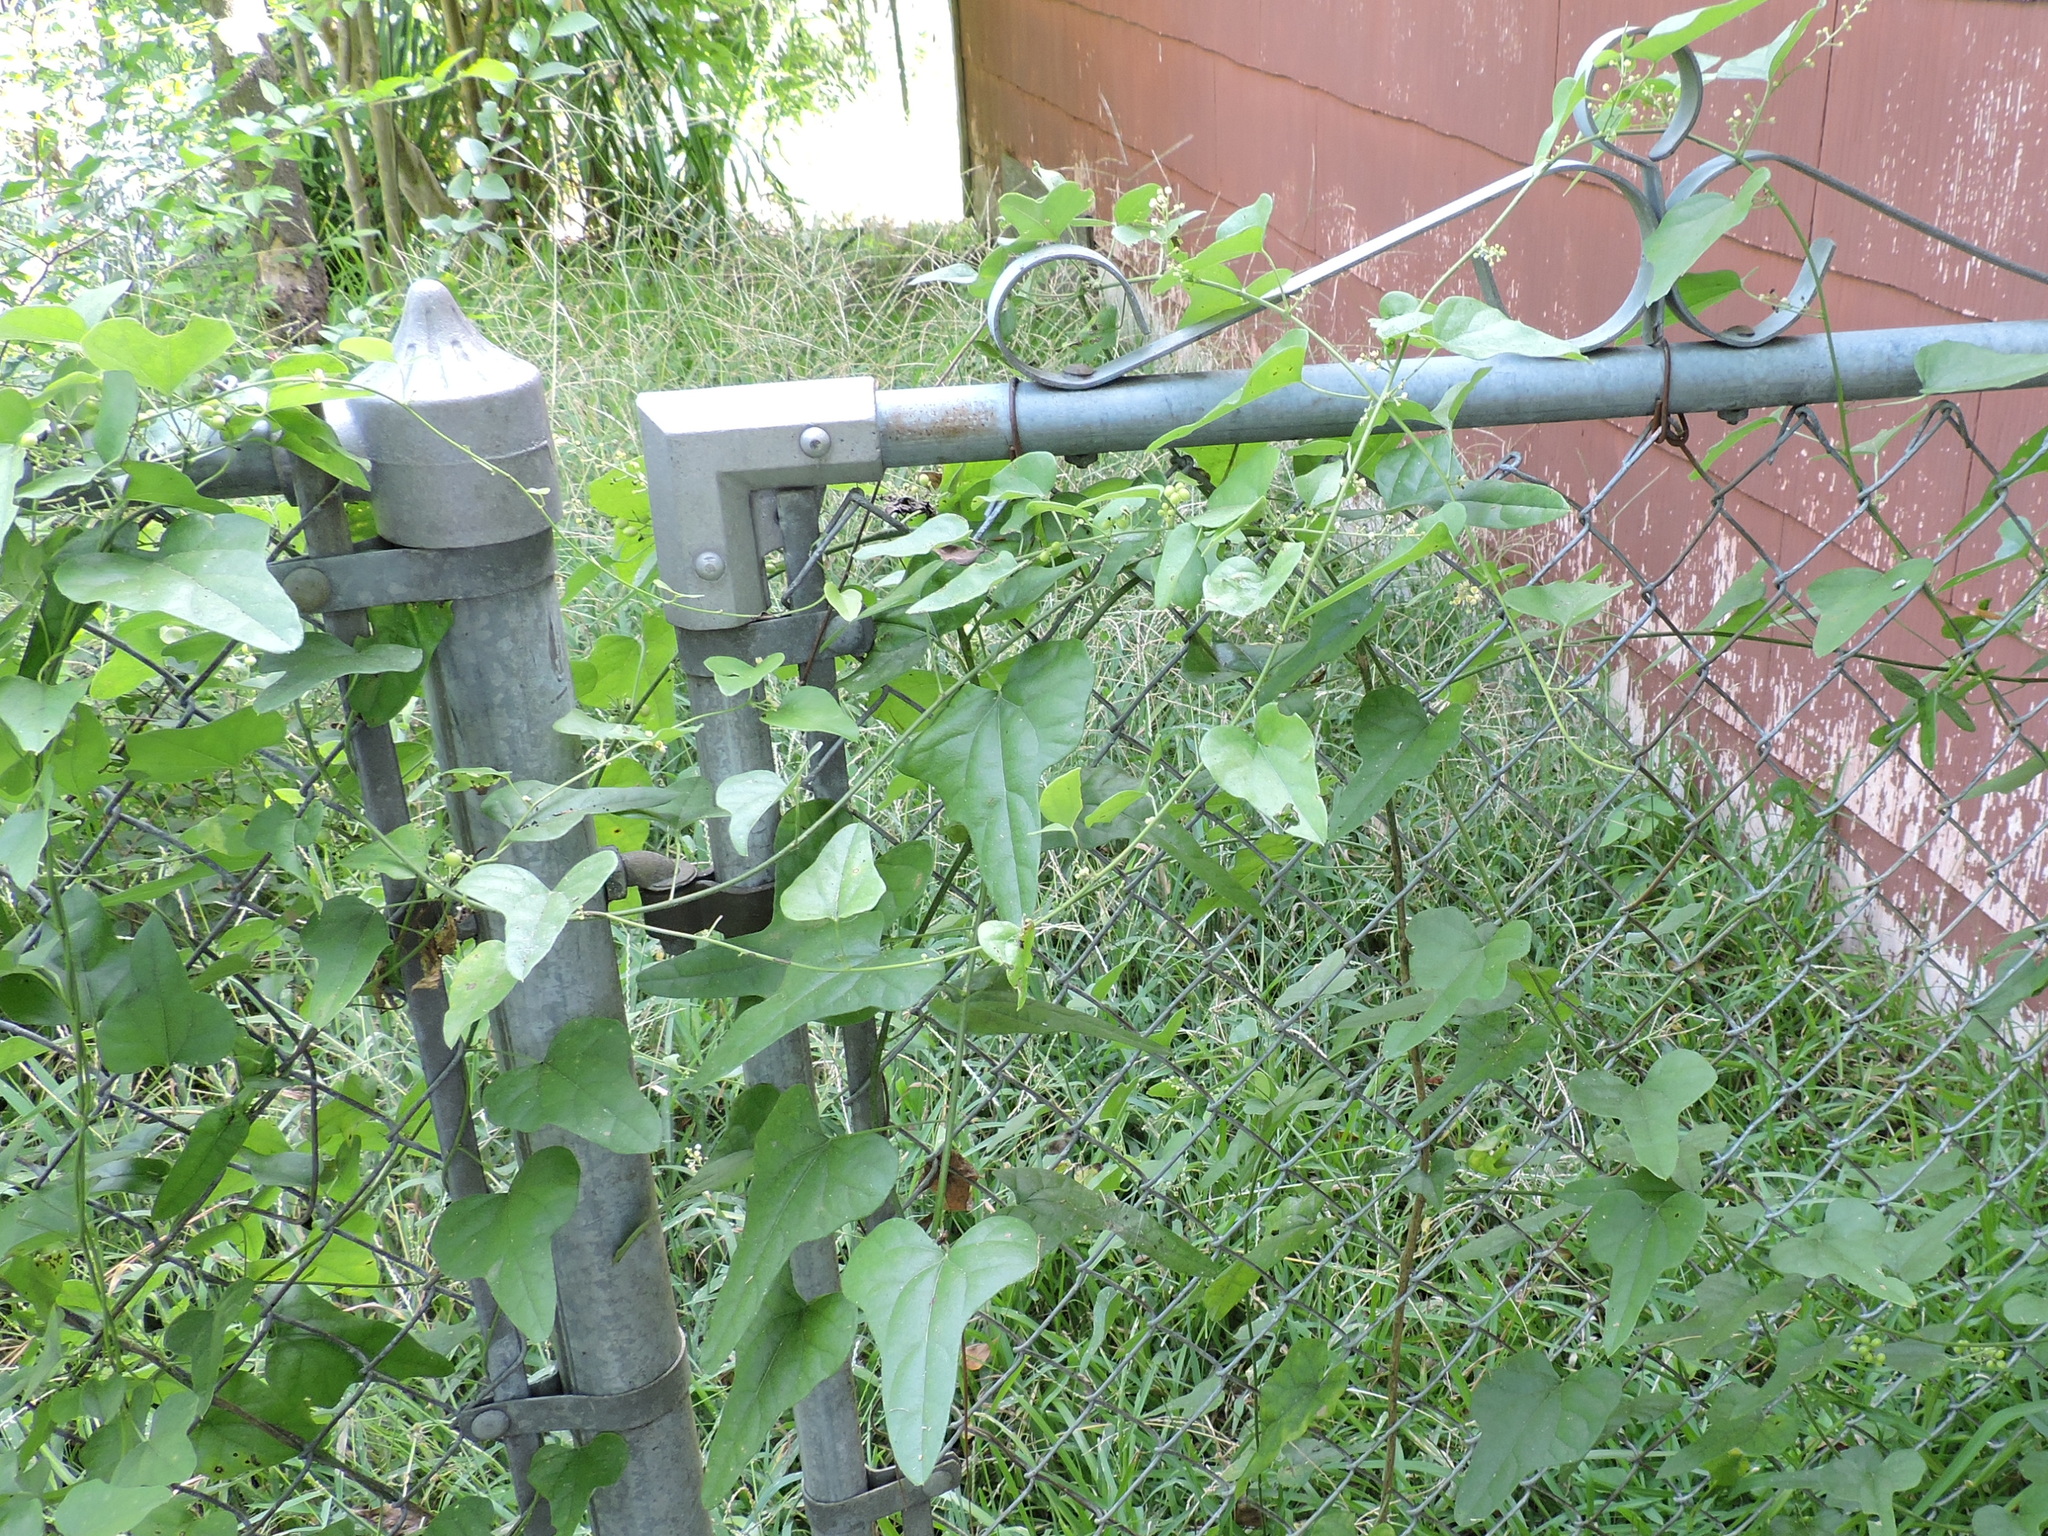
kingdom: Plantae
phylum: Tracheophyta
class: Magnoliopsida
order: Ranunculales
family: Menispermaceae
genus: Cocculus
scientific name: Cocculus carolinus
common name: Carolina moonseed
